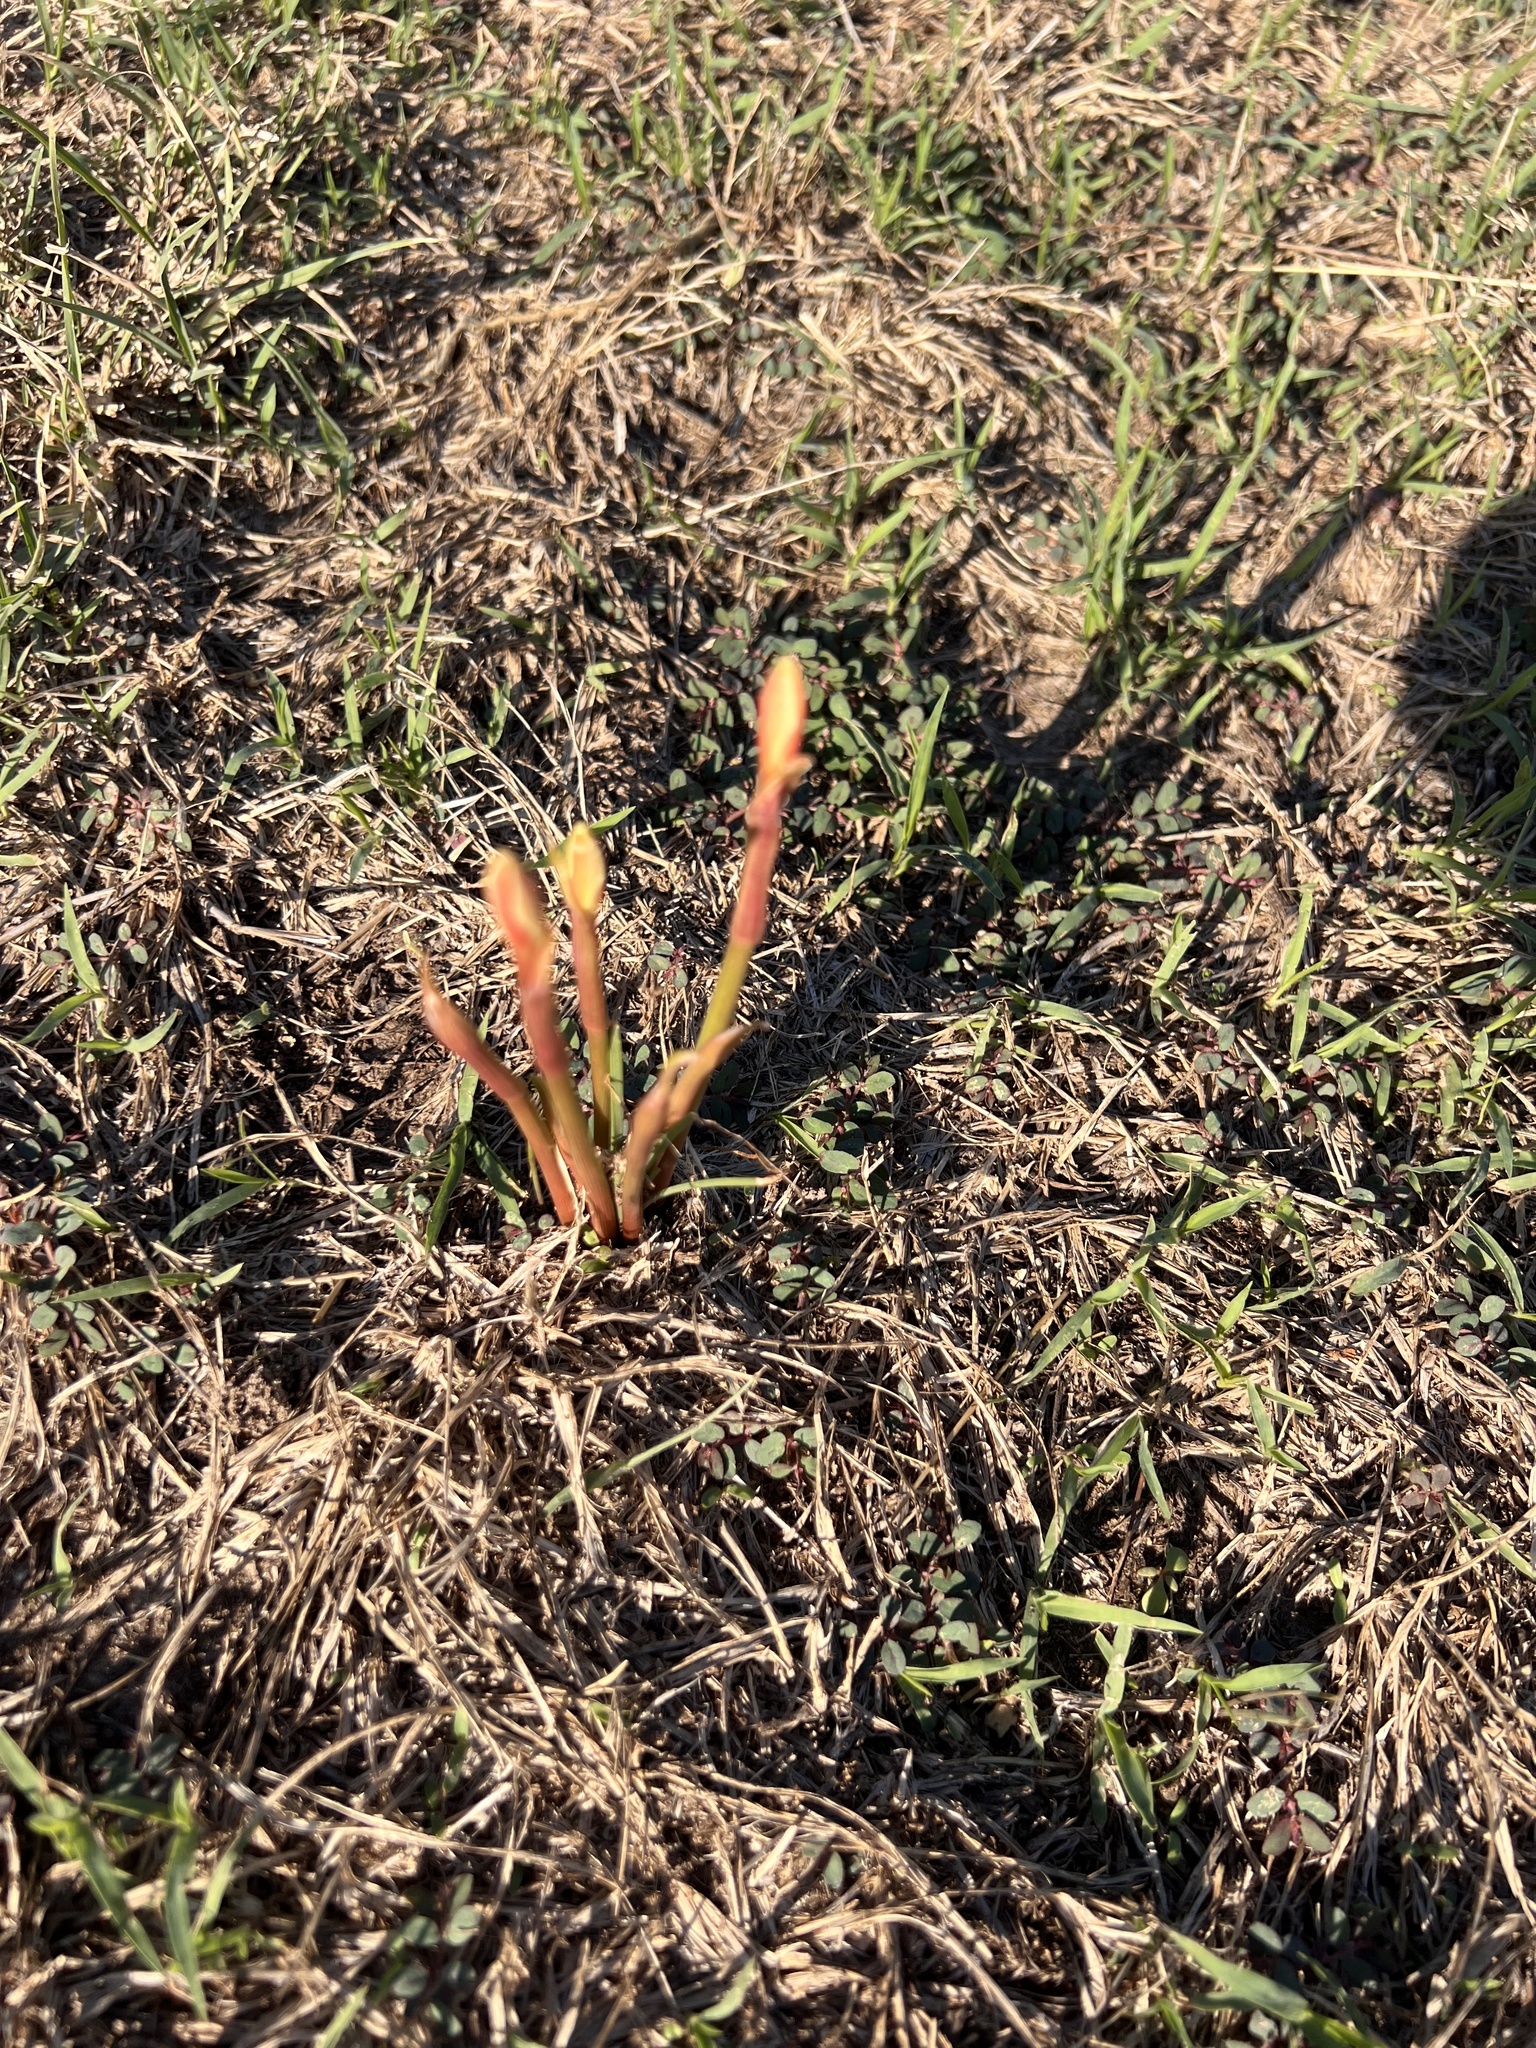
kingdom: Plantae
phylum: Tracheophyta
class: Liliopsida
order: Asparagales
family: Amaryllidaceae
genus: Zephyranthes
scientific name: Zephyranthes tubispatha
